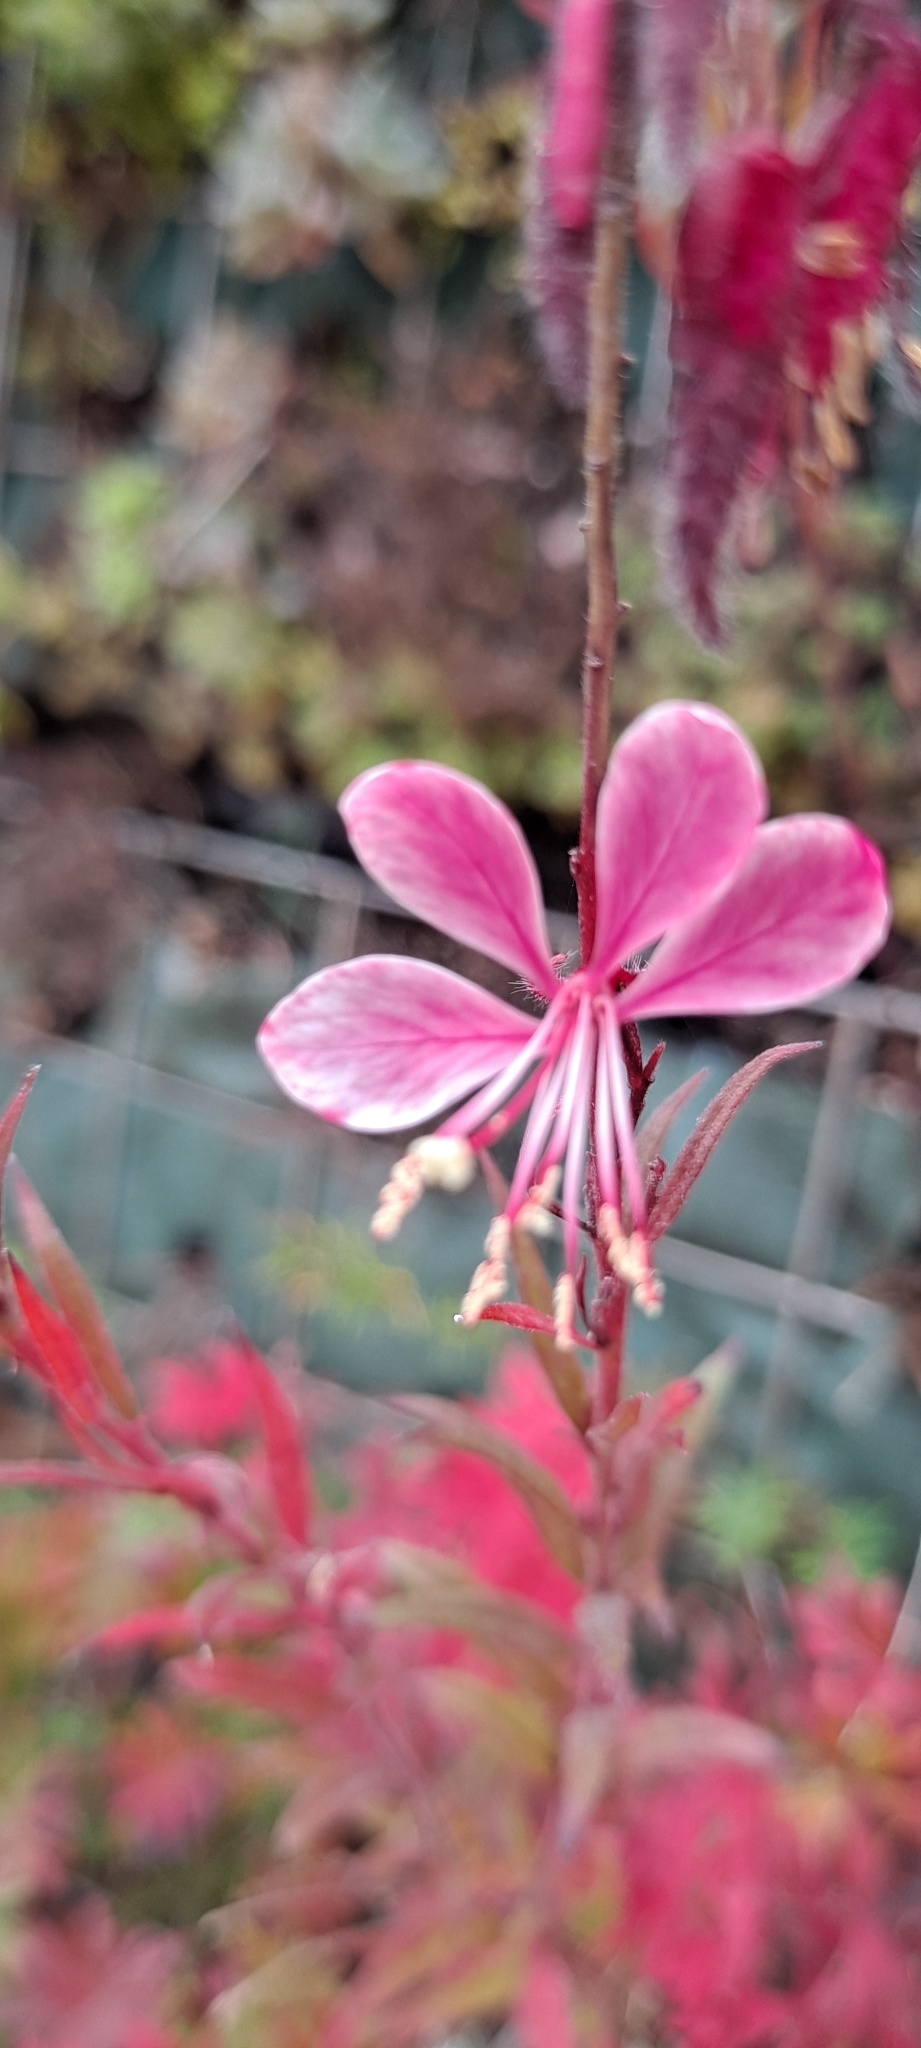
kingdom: Plantae
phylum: Tracheophyta
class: Magnoliopsida
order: Myrtales
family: Onagraceae
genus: Oenothera
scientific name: Oenothera lindheimeri
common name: Lindheimer's beeblossom
